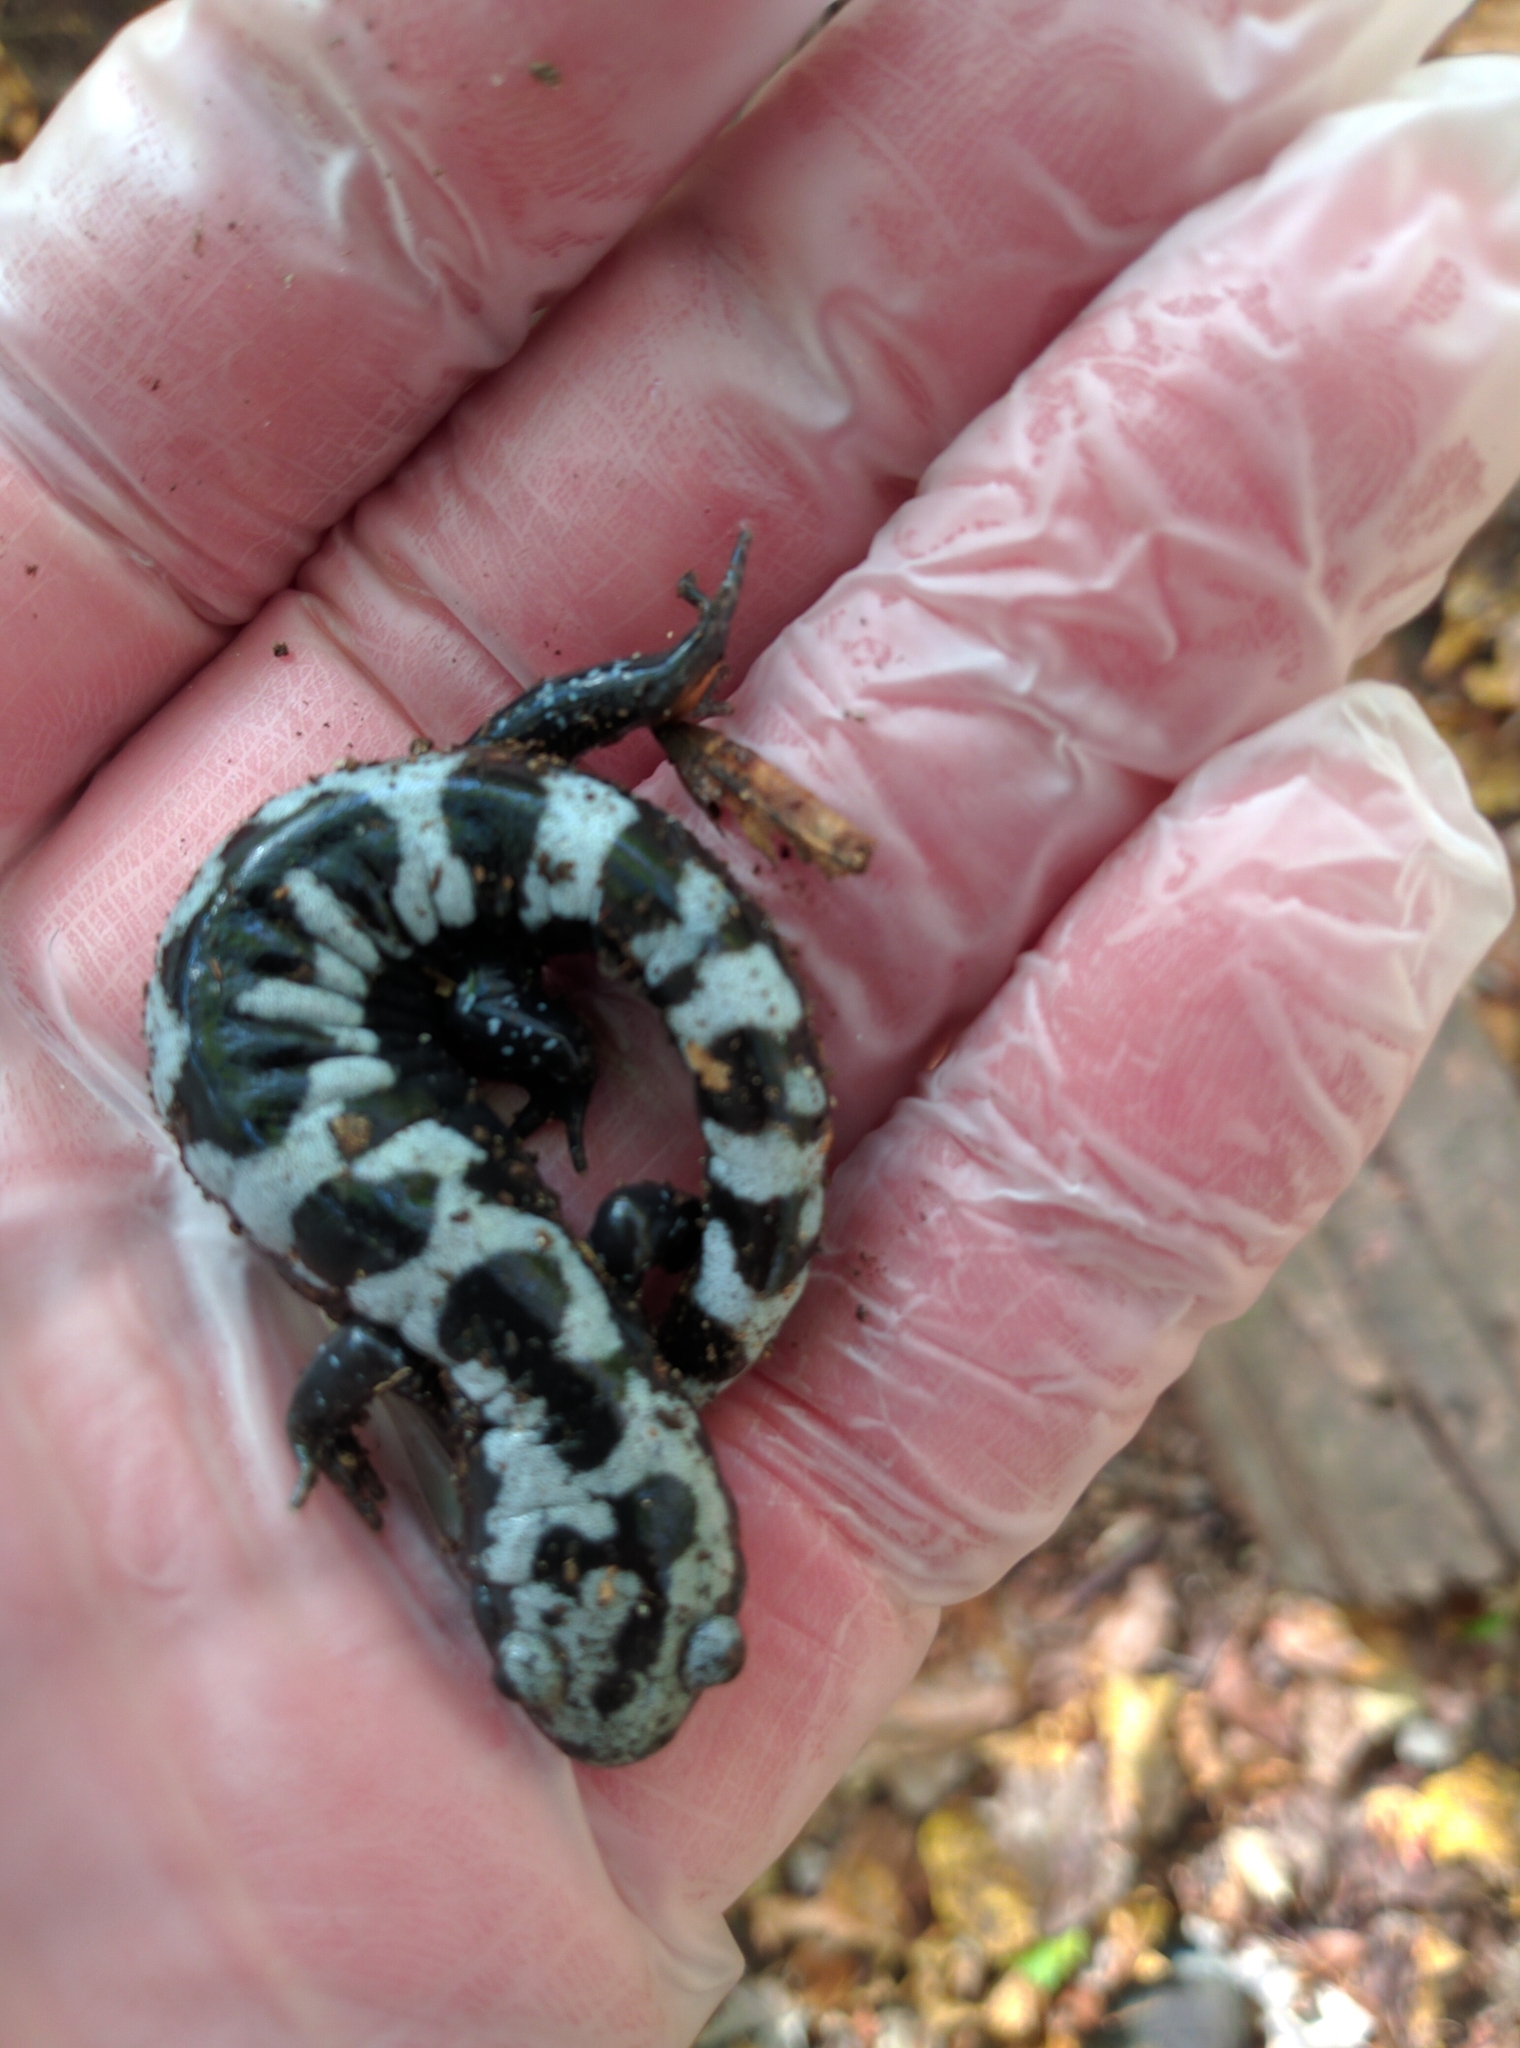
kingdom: Animalia
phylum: Chordata
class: Amphibia
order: Caudata
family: Ambystomatidae
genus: Ambystoma
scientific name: Ambystoma opacum
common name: Marbled salamander
